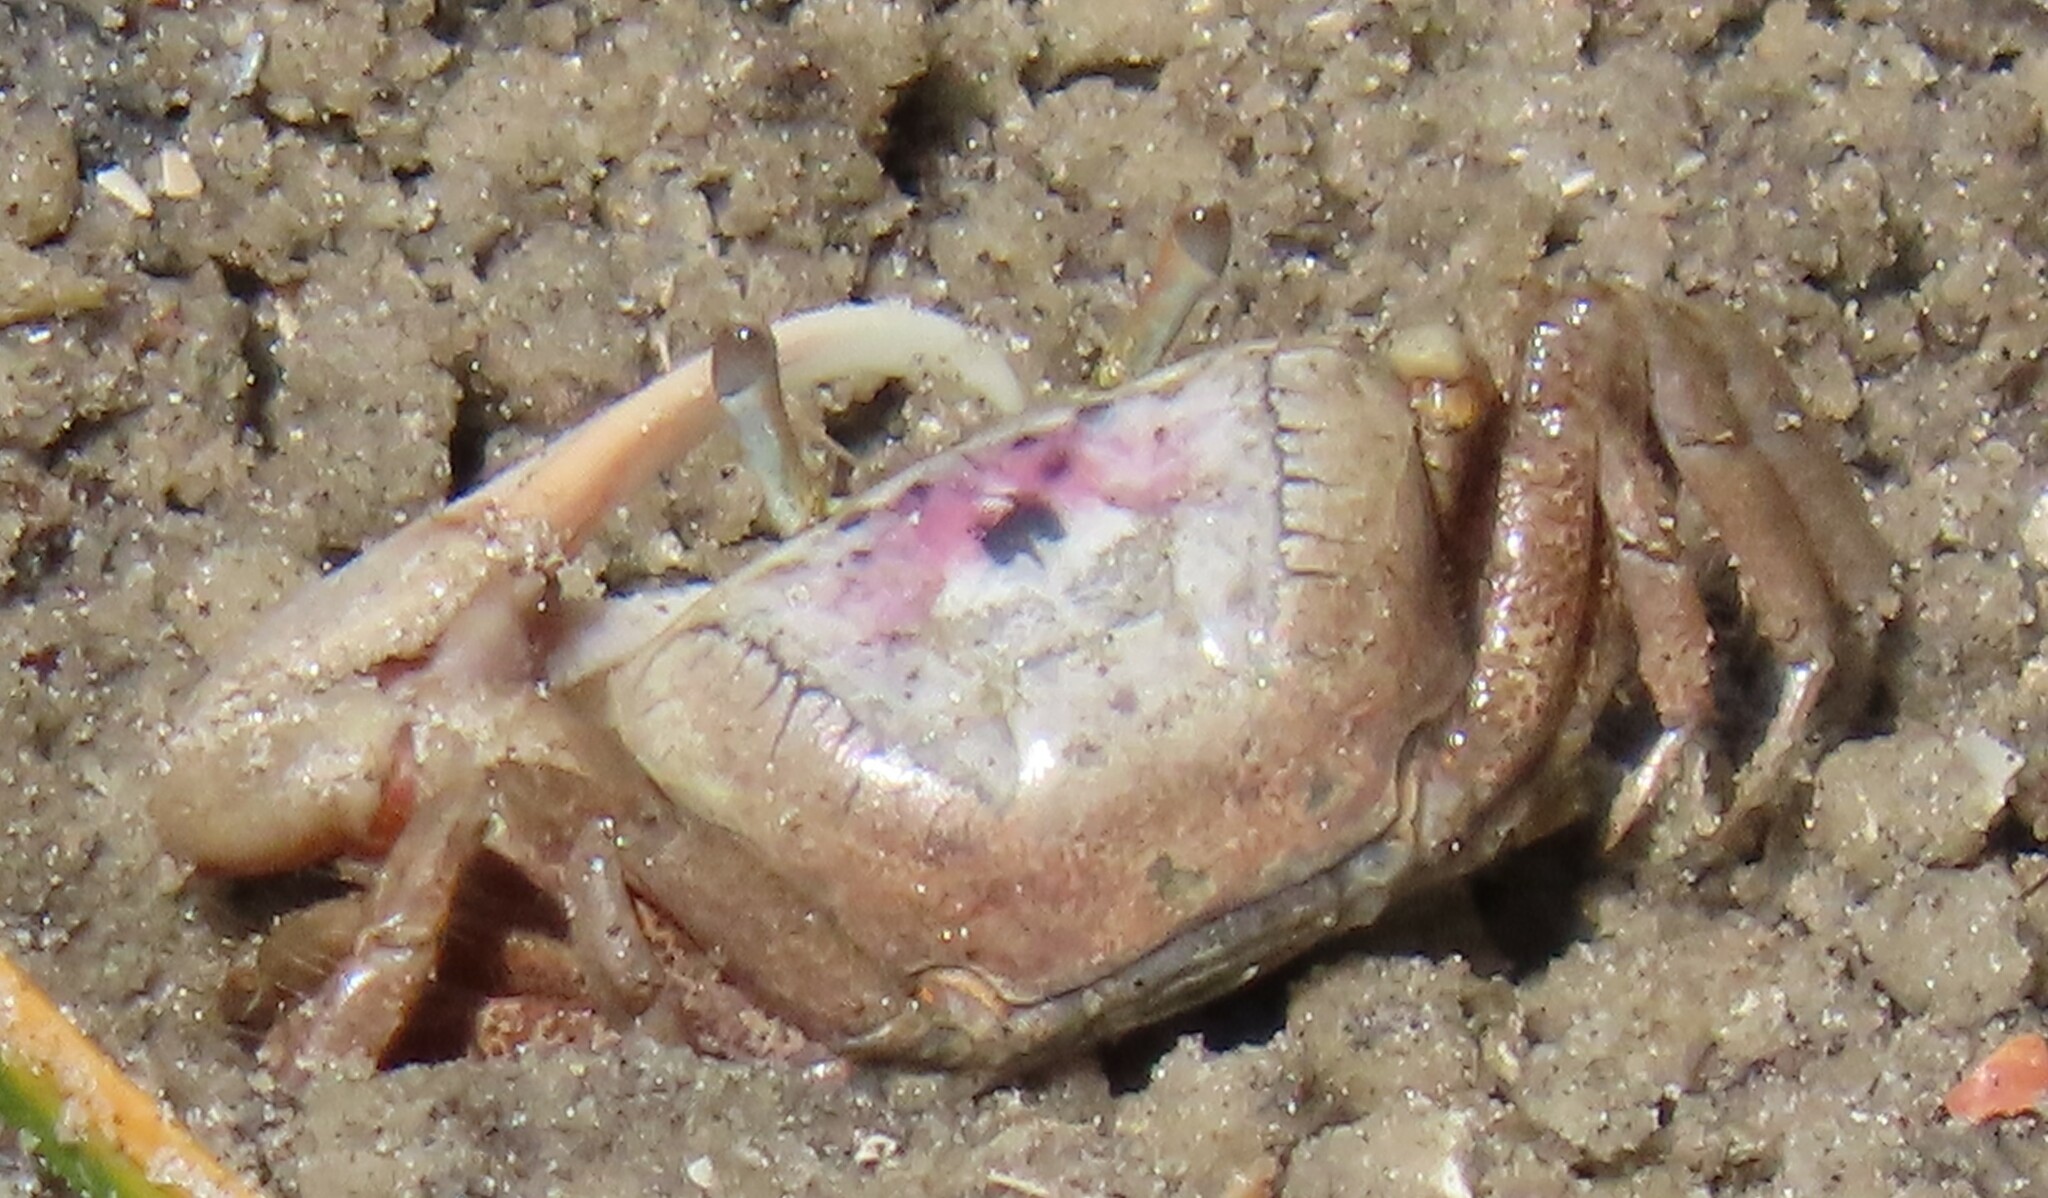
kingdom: Animalia
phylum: Arthropoda
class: Malacostraca
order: Decapoda
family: Ocypodidae
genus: Leptuca
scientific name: Leptuca pugilator
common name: Atlantic sand fiddler crab
